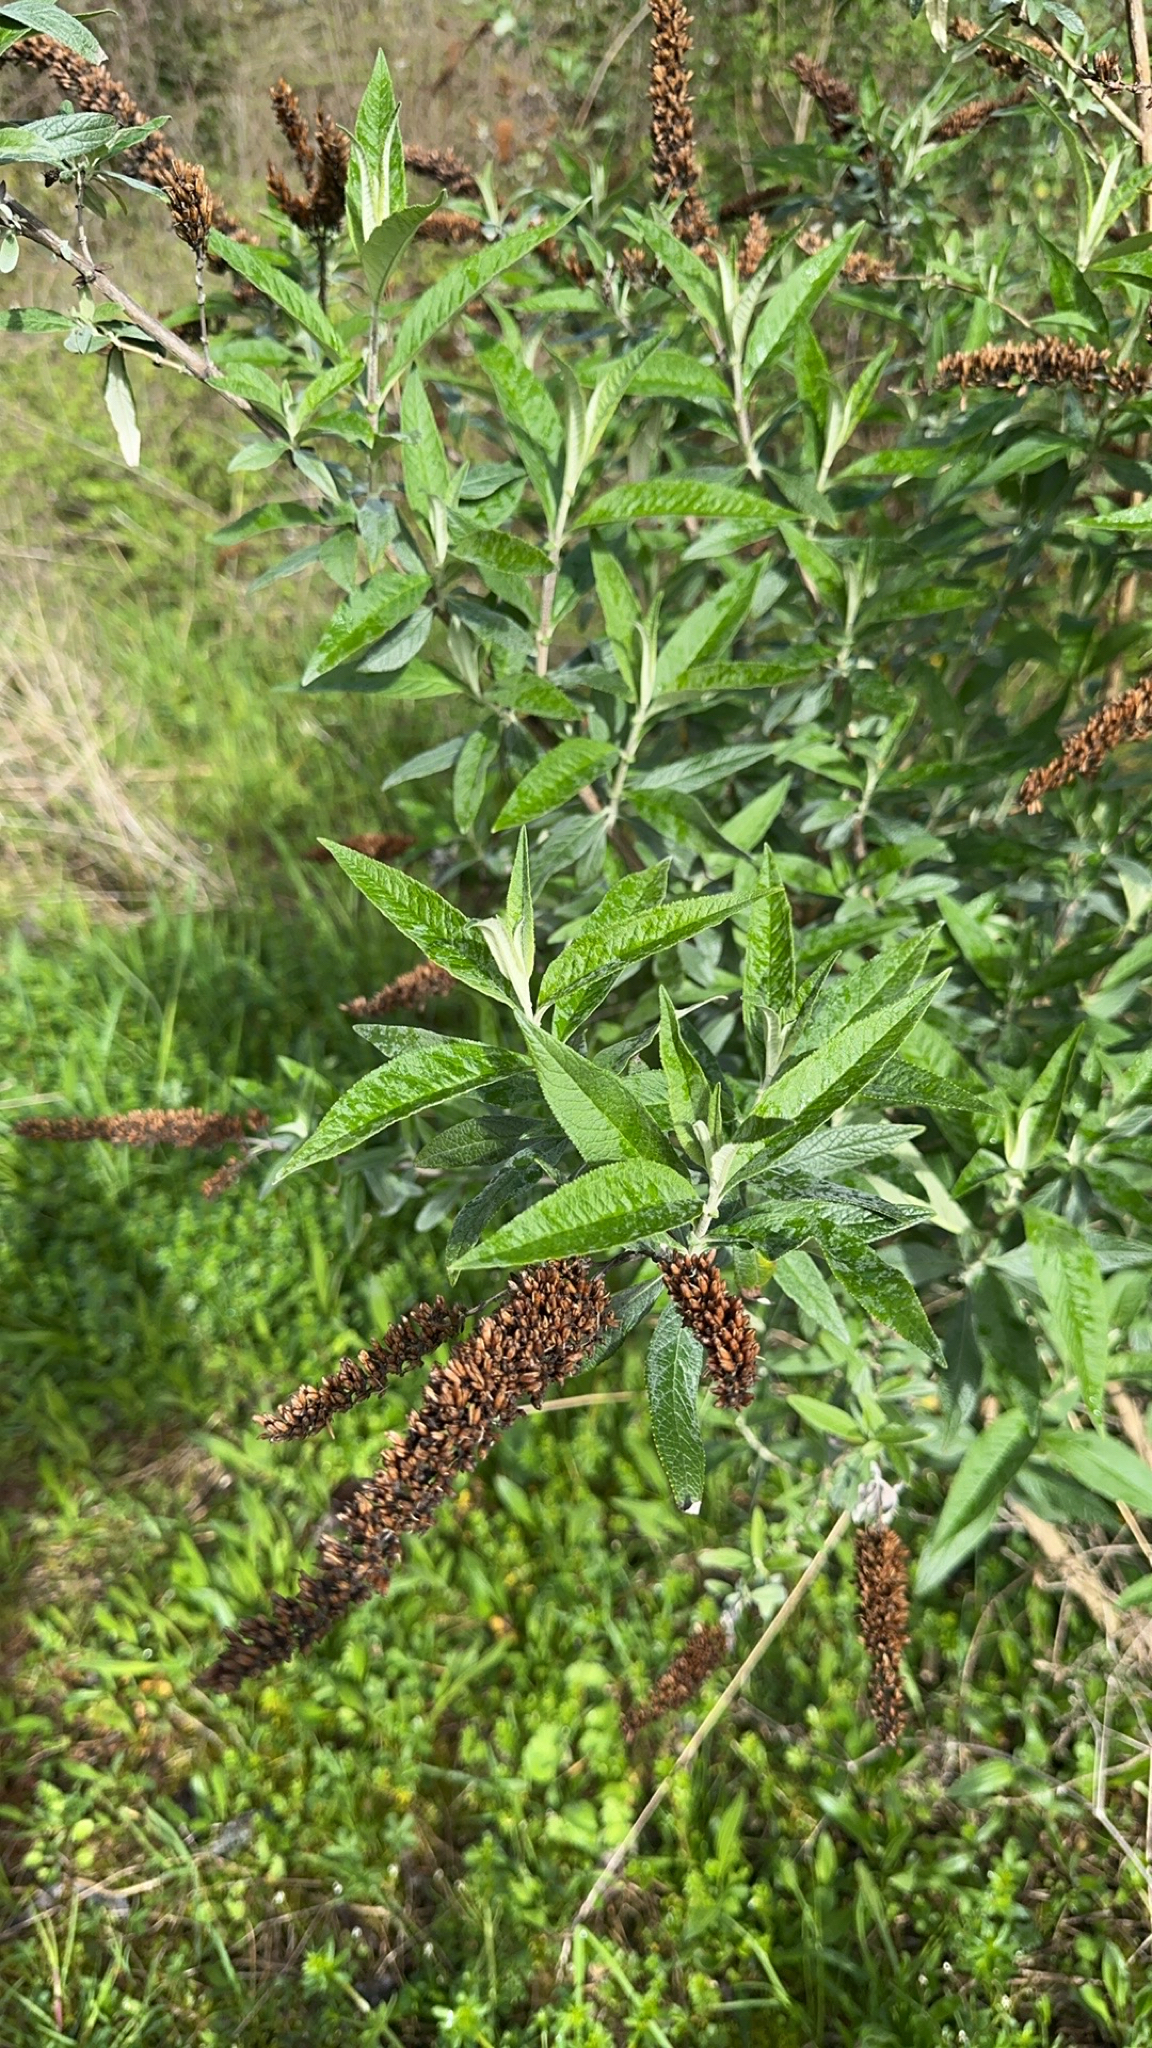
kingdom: Plantae
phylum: Tracheophyta
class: Magnoliopsida
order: Lamiales
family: Scrophulariaceae
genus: Buddleja
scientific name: Buddleja davidii
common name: Butterfly-bush
